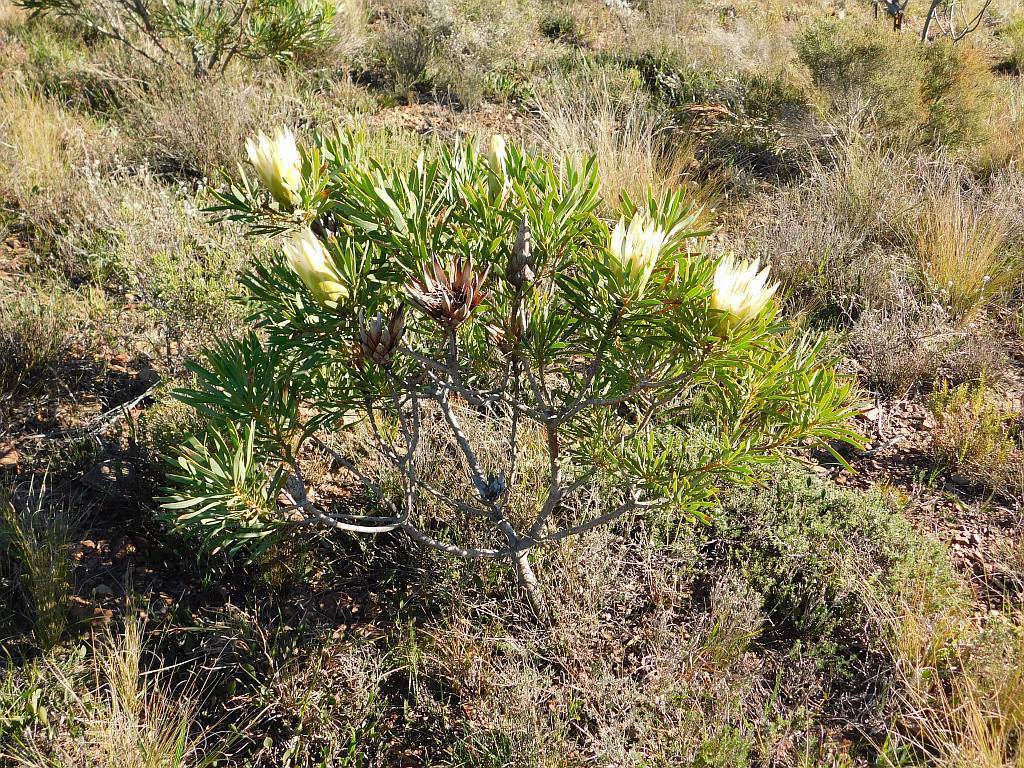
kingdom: Plantae
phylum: Tracheophyta
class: Magnoliopsida
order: Proteales
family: Proteaceae
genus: Protea
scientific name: Protea repens
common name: Sugarbush
